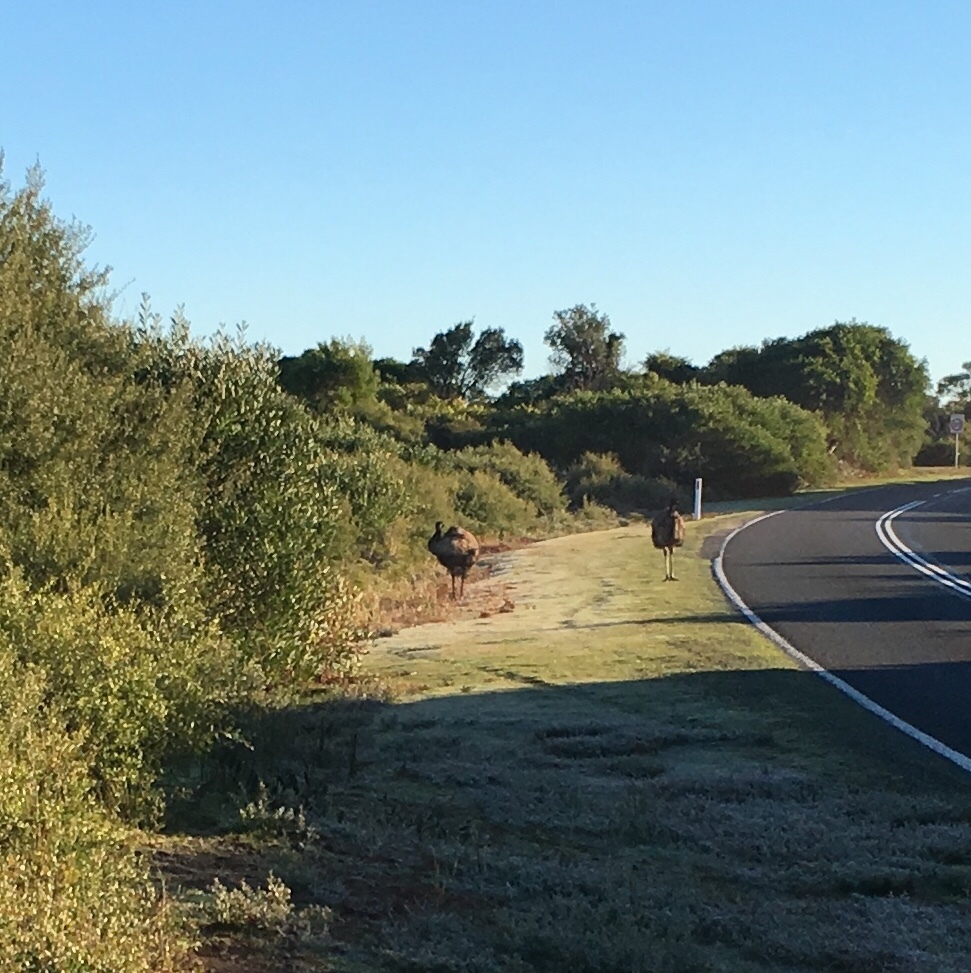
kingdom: Animalia
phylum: Chordata
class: Aves
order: Casuariiformes
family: Dromaiidae
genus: Dromaius
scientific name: Dromaius novaehollandiae
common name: Emu
